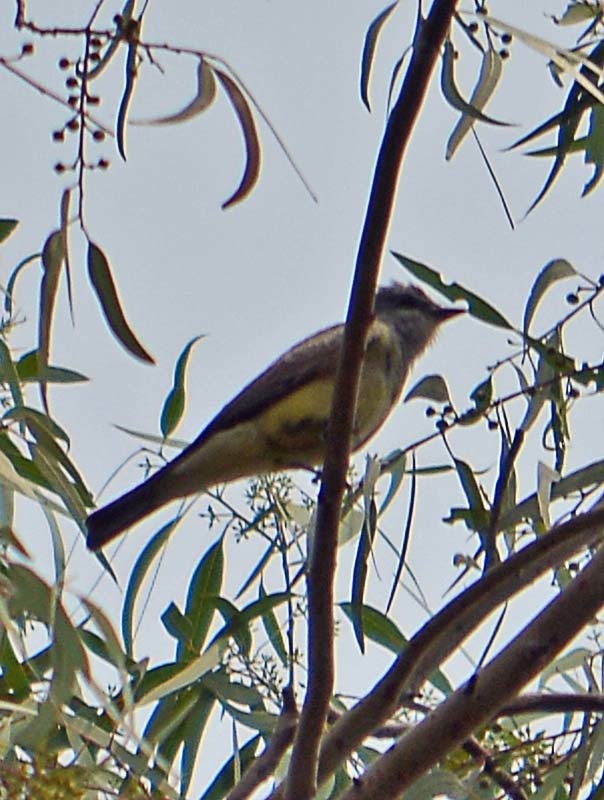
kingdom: Animalia
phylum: Chordata
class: Aves
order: Passeriformes
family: Tyrannidae
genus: Tyrannus
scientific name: Tyrannus vociferans
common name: Cassin's kingbird
